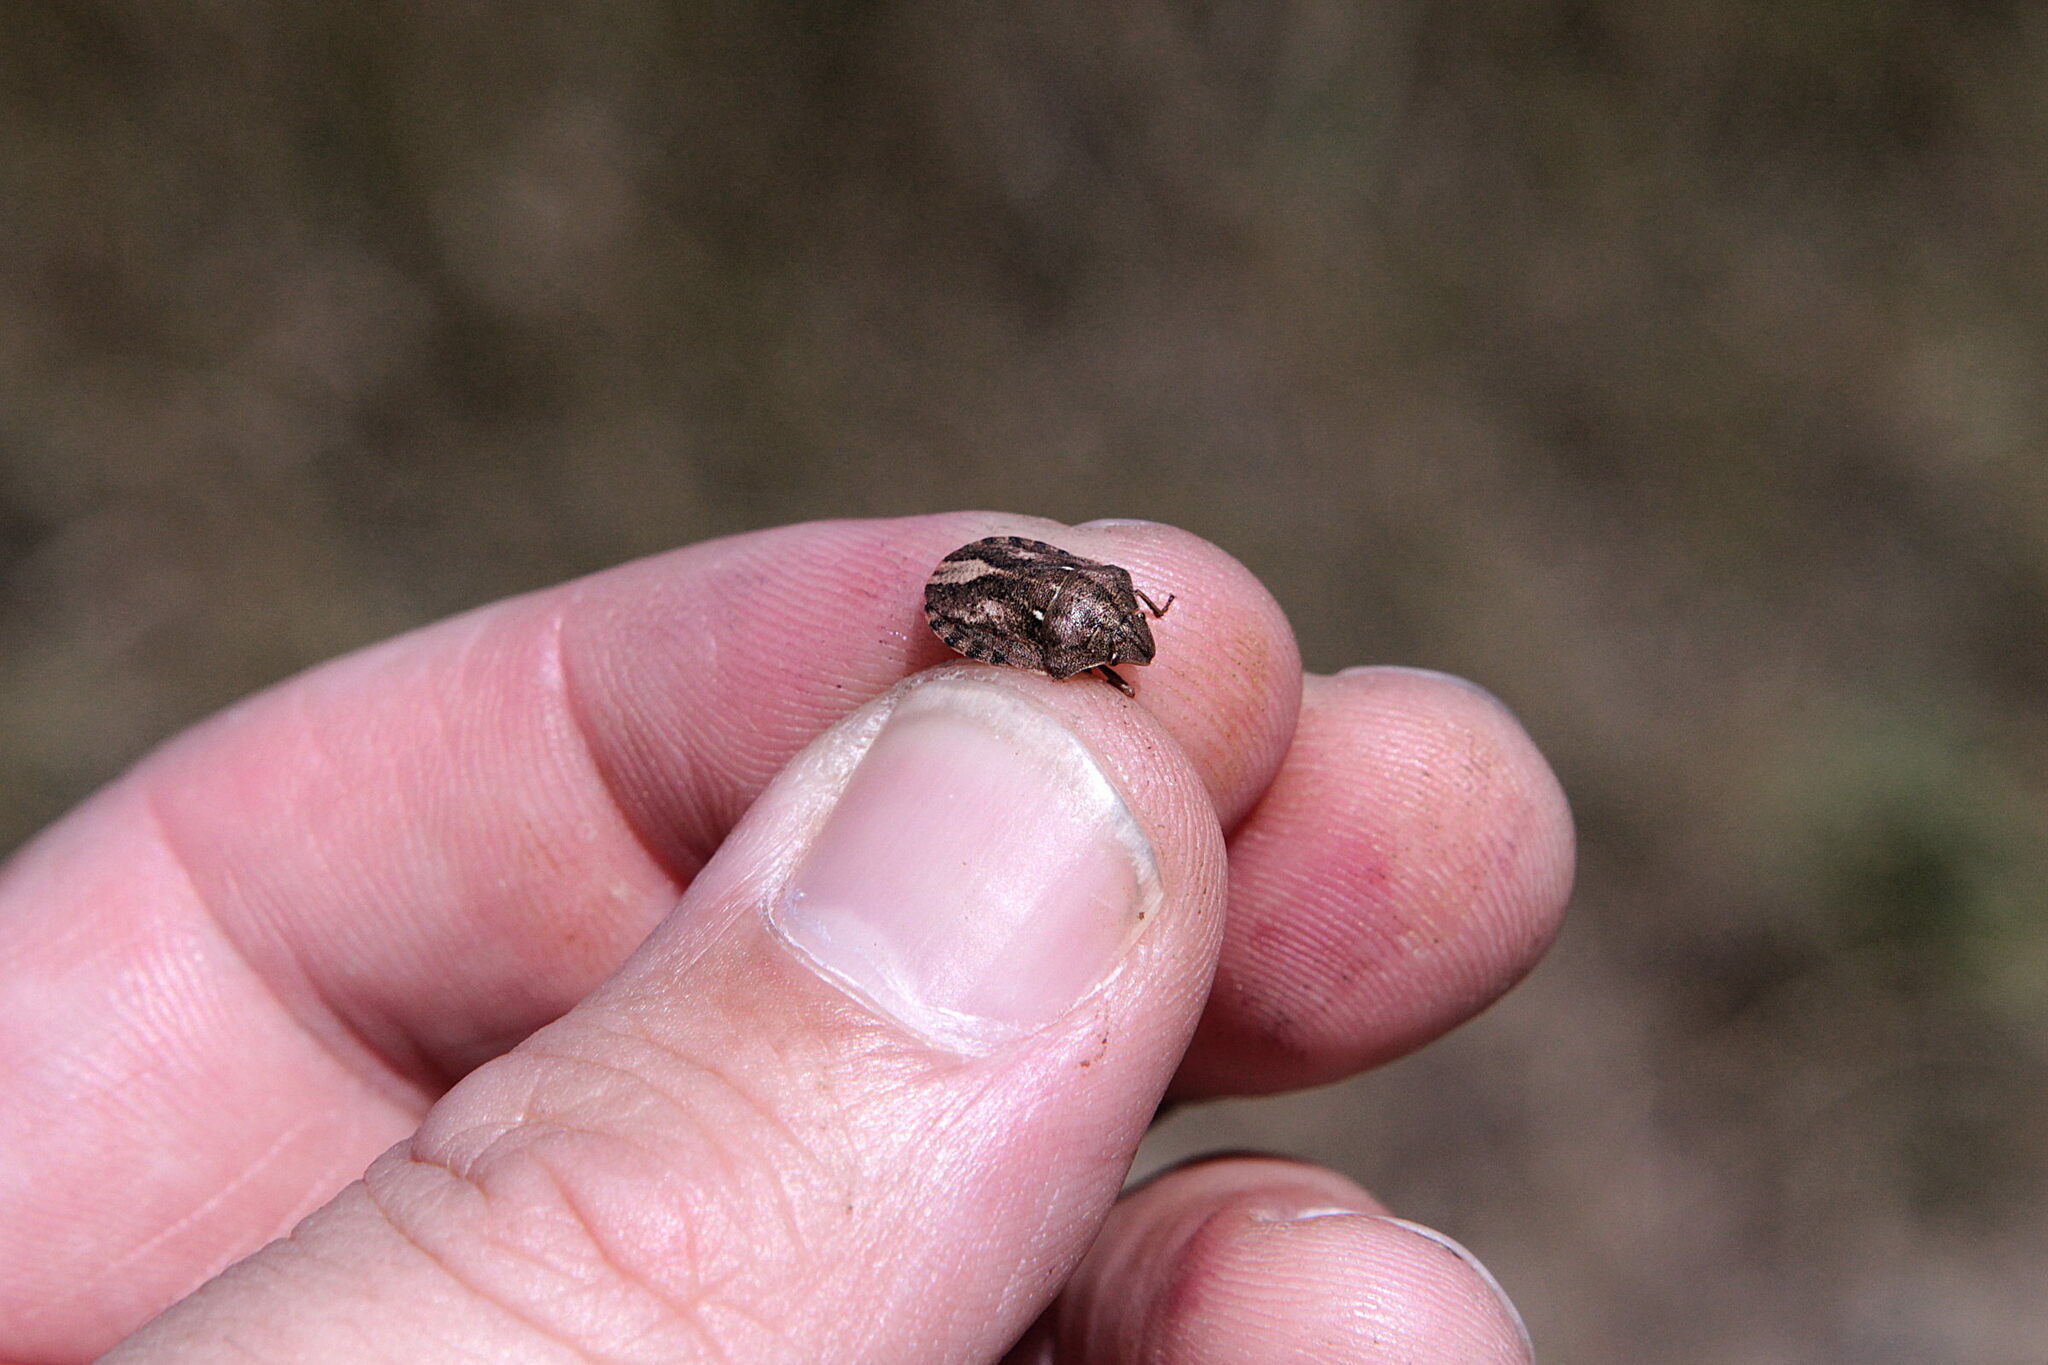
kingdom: Animalia
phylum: Arthropoda
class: Insecta
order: Hemiptera
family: Scutelleridae
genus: Eurygaster
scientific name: Eurygaster testudinaria
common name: Tortoise bug
